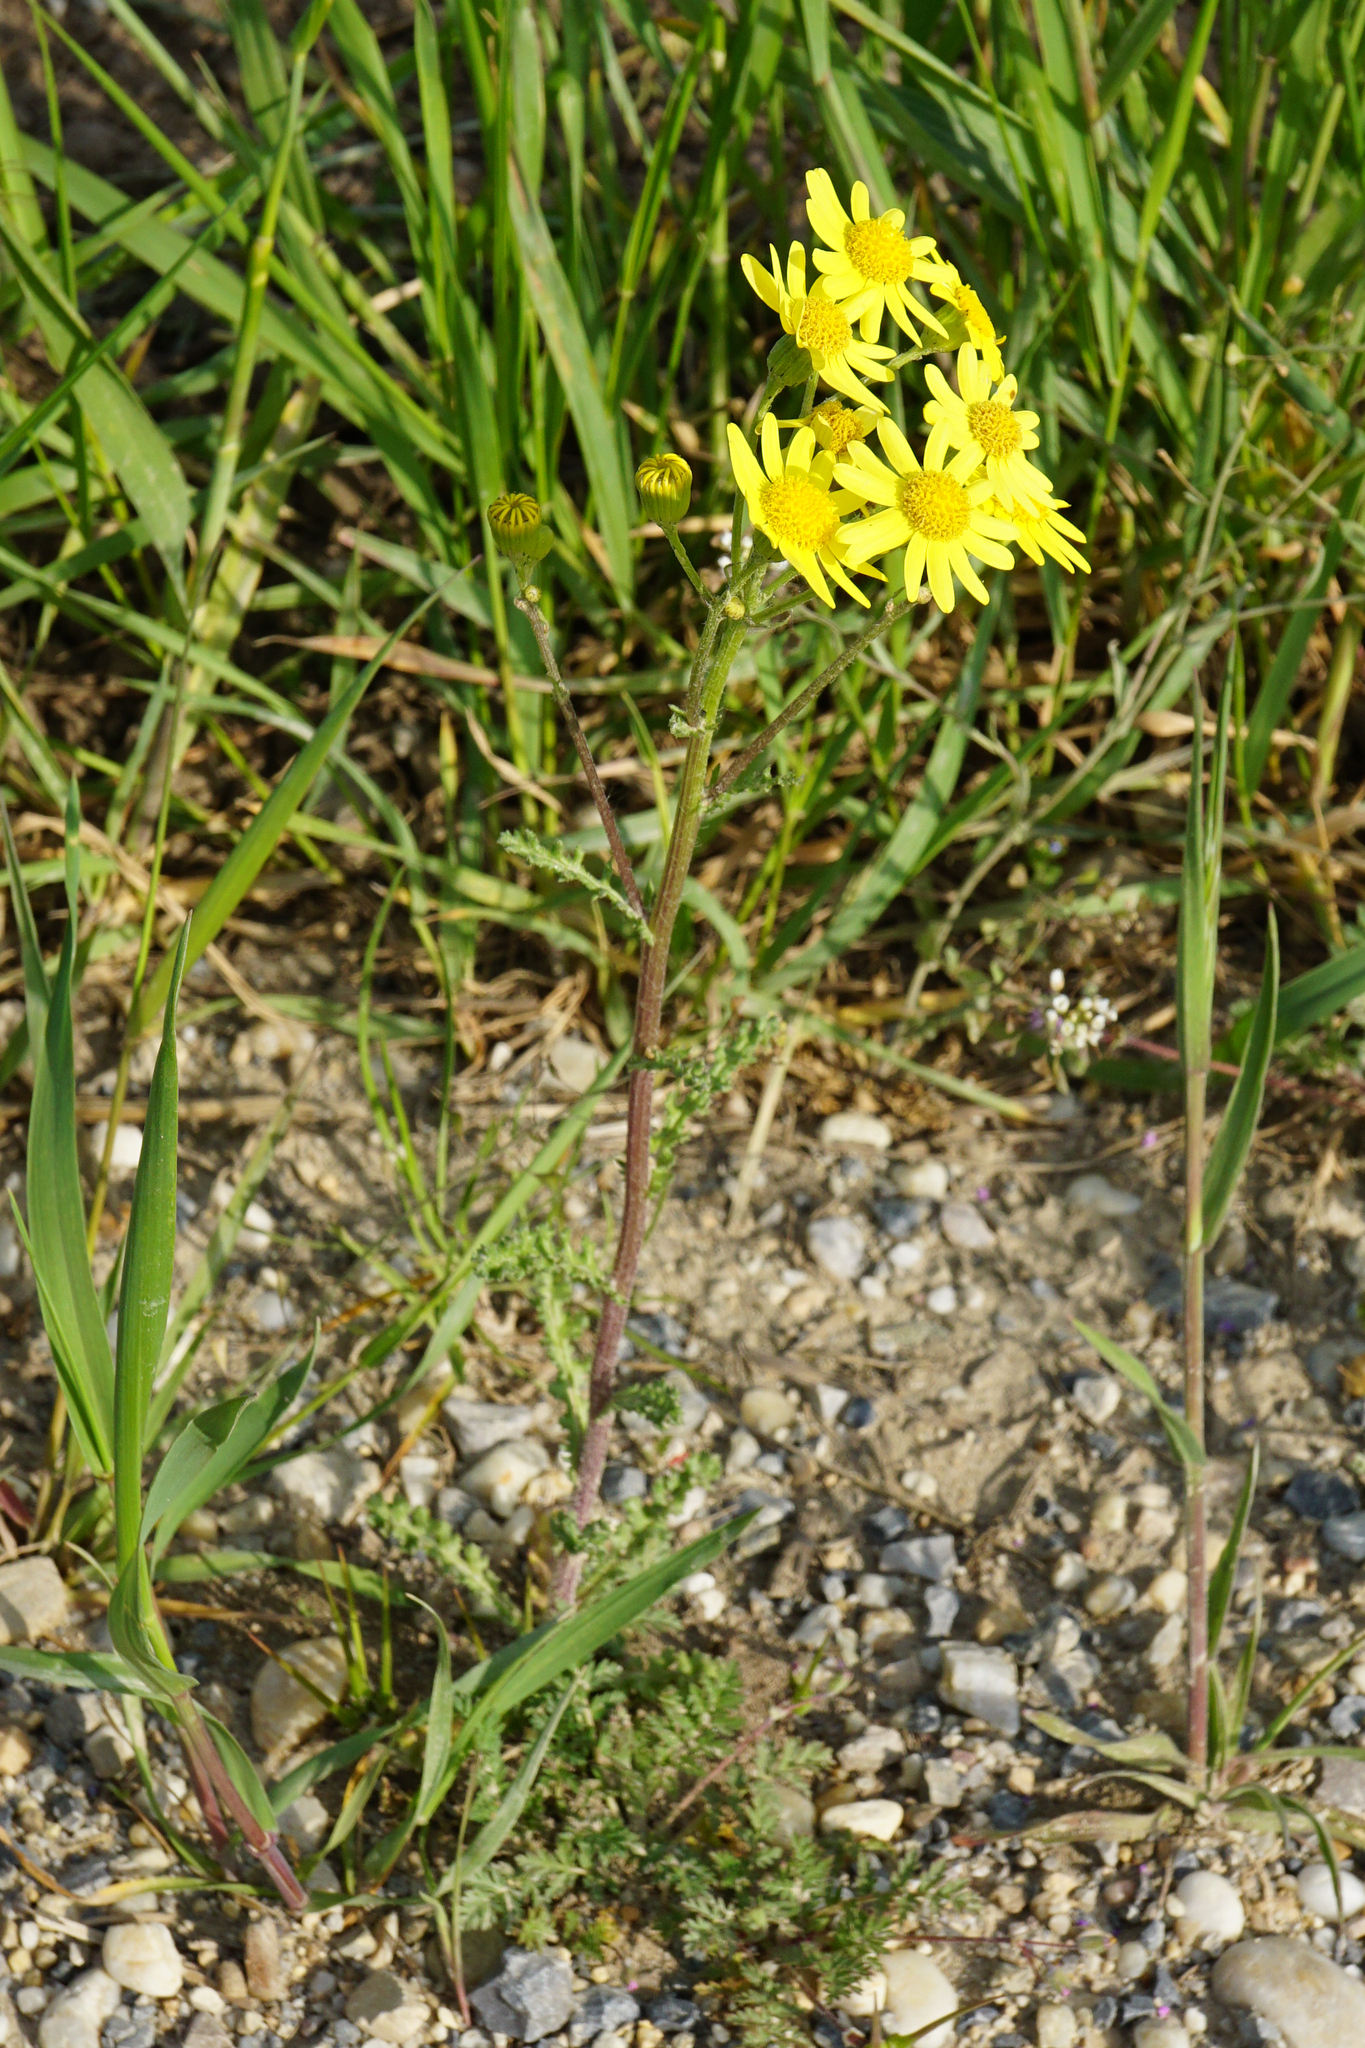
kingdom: Plantae
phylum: Tracheophyta
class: Magnoliopsida
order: Asterales
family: Asteraceae
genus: Senecio
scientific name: Senecio vernalis
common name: Eastern groundsel
